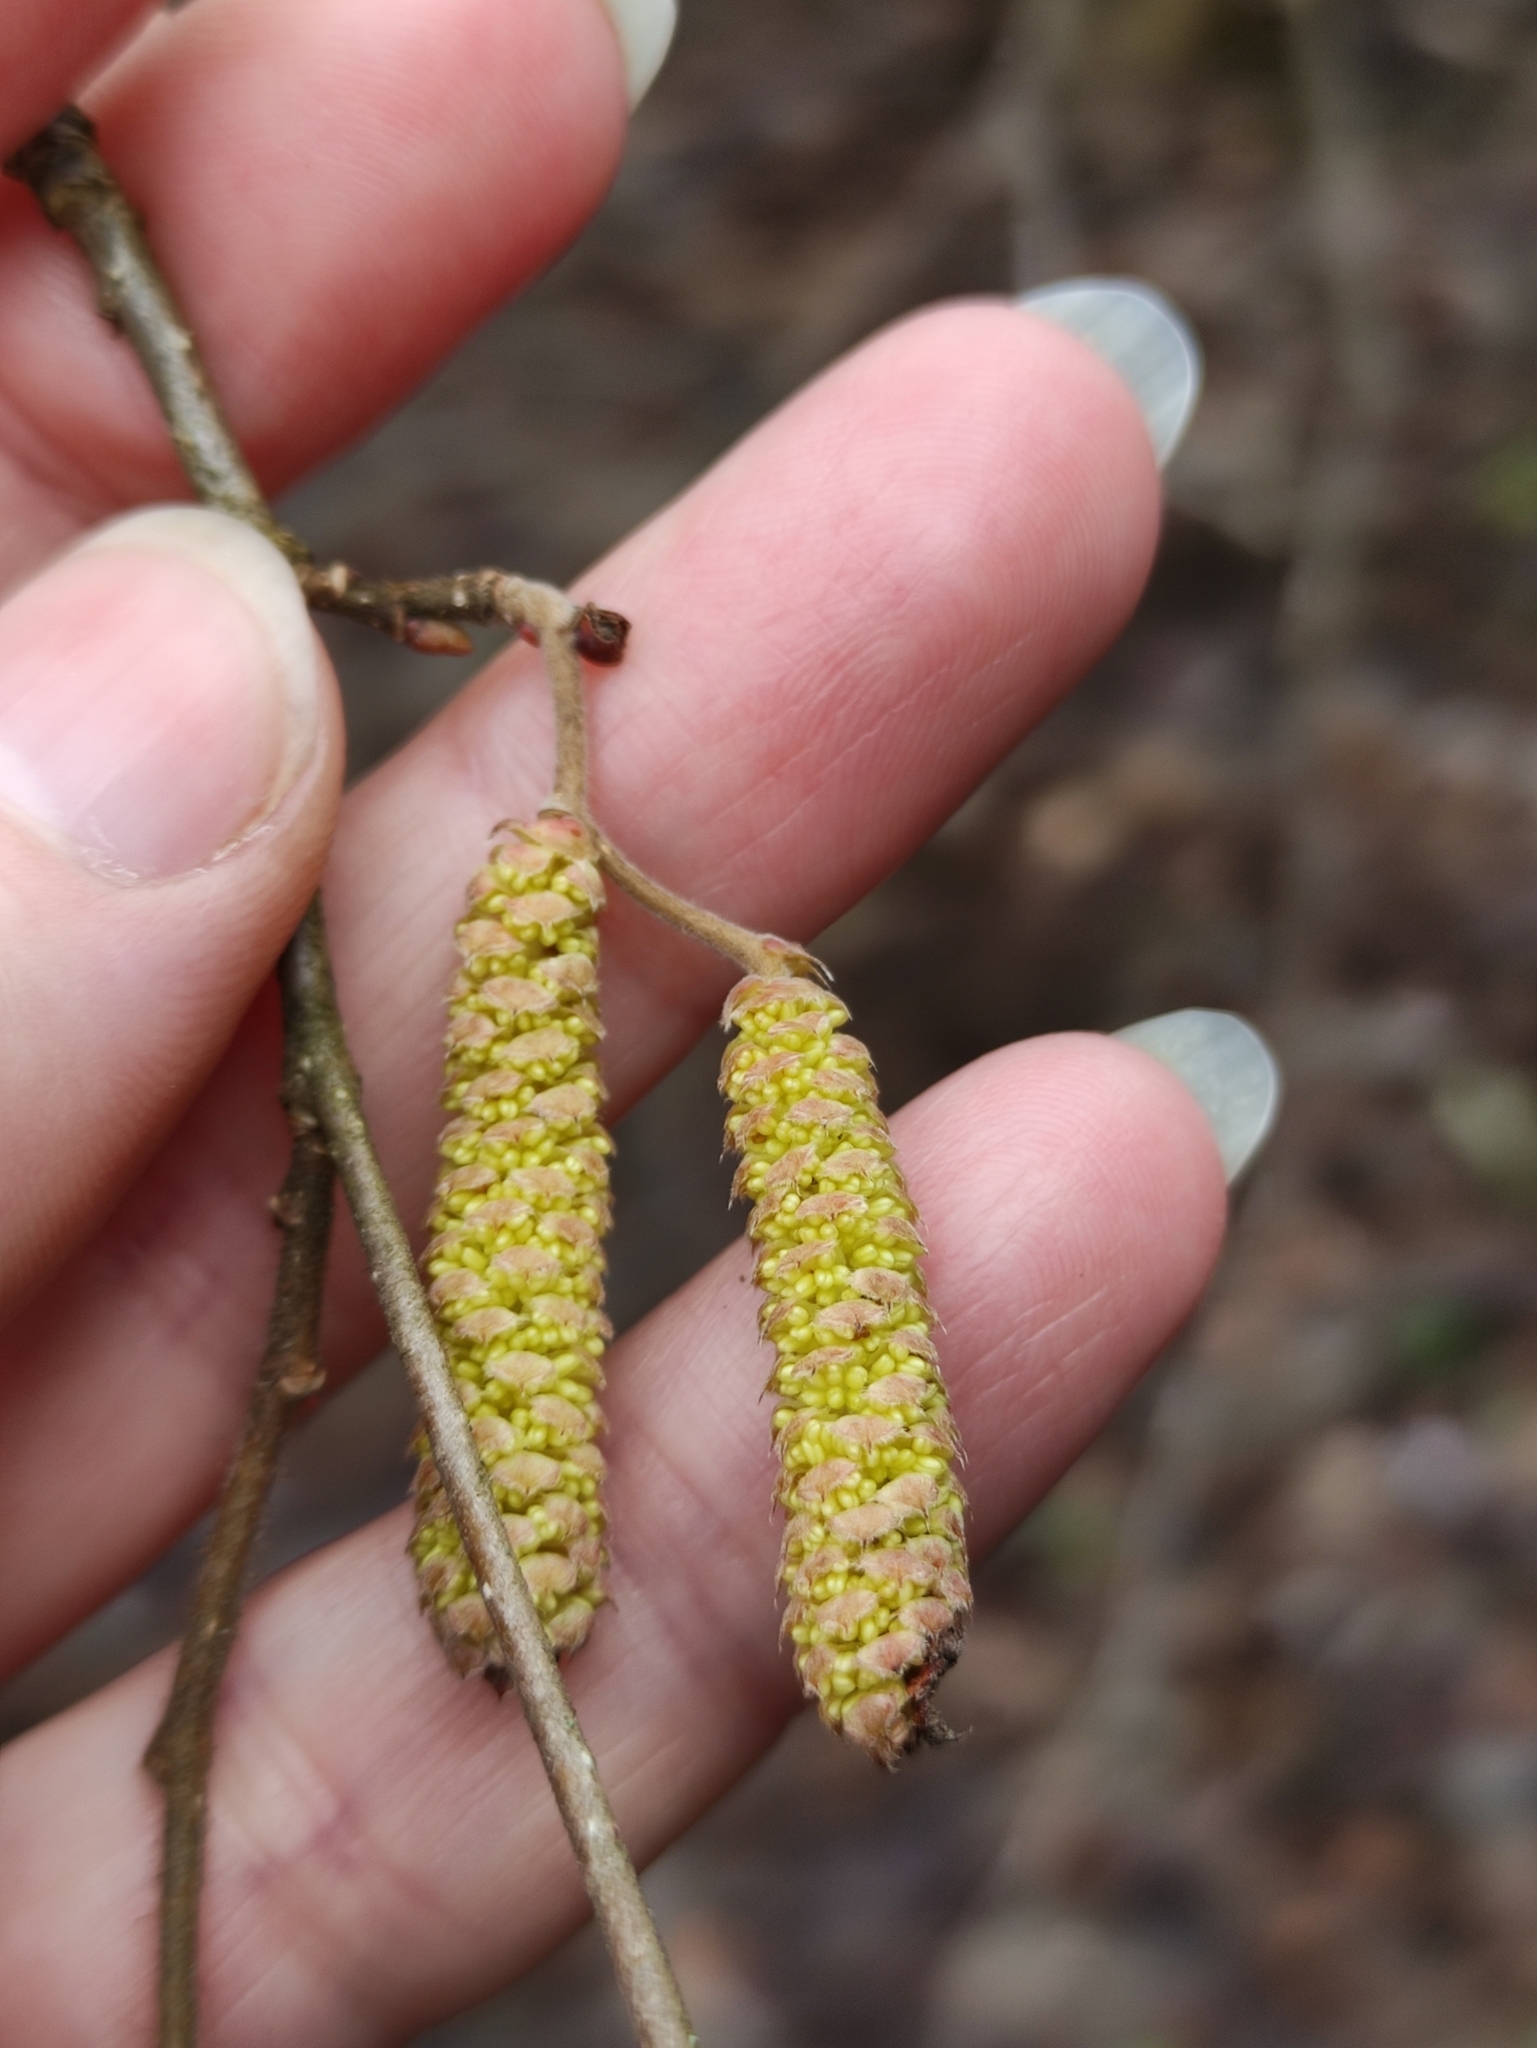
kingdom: Plantae
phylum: Tracheophyta
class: Magnoliopsida
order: Fagales
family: Betulaceae
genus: Corylus
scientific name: Corylus avellana
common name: European hazel
